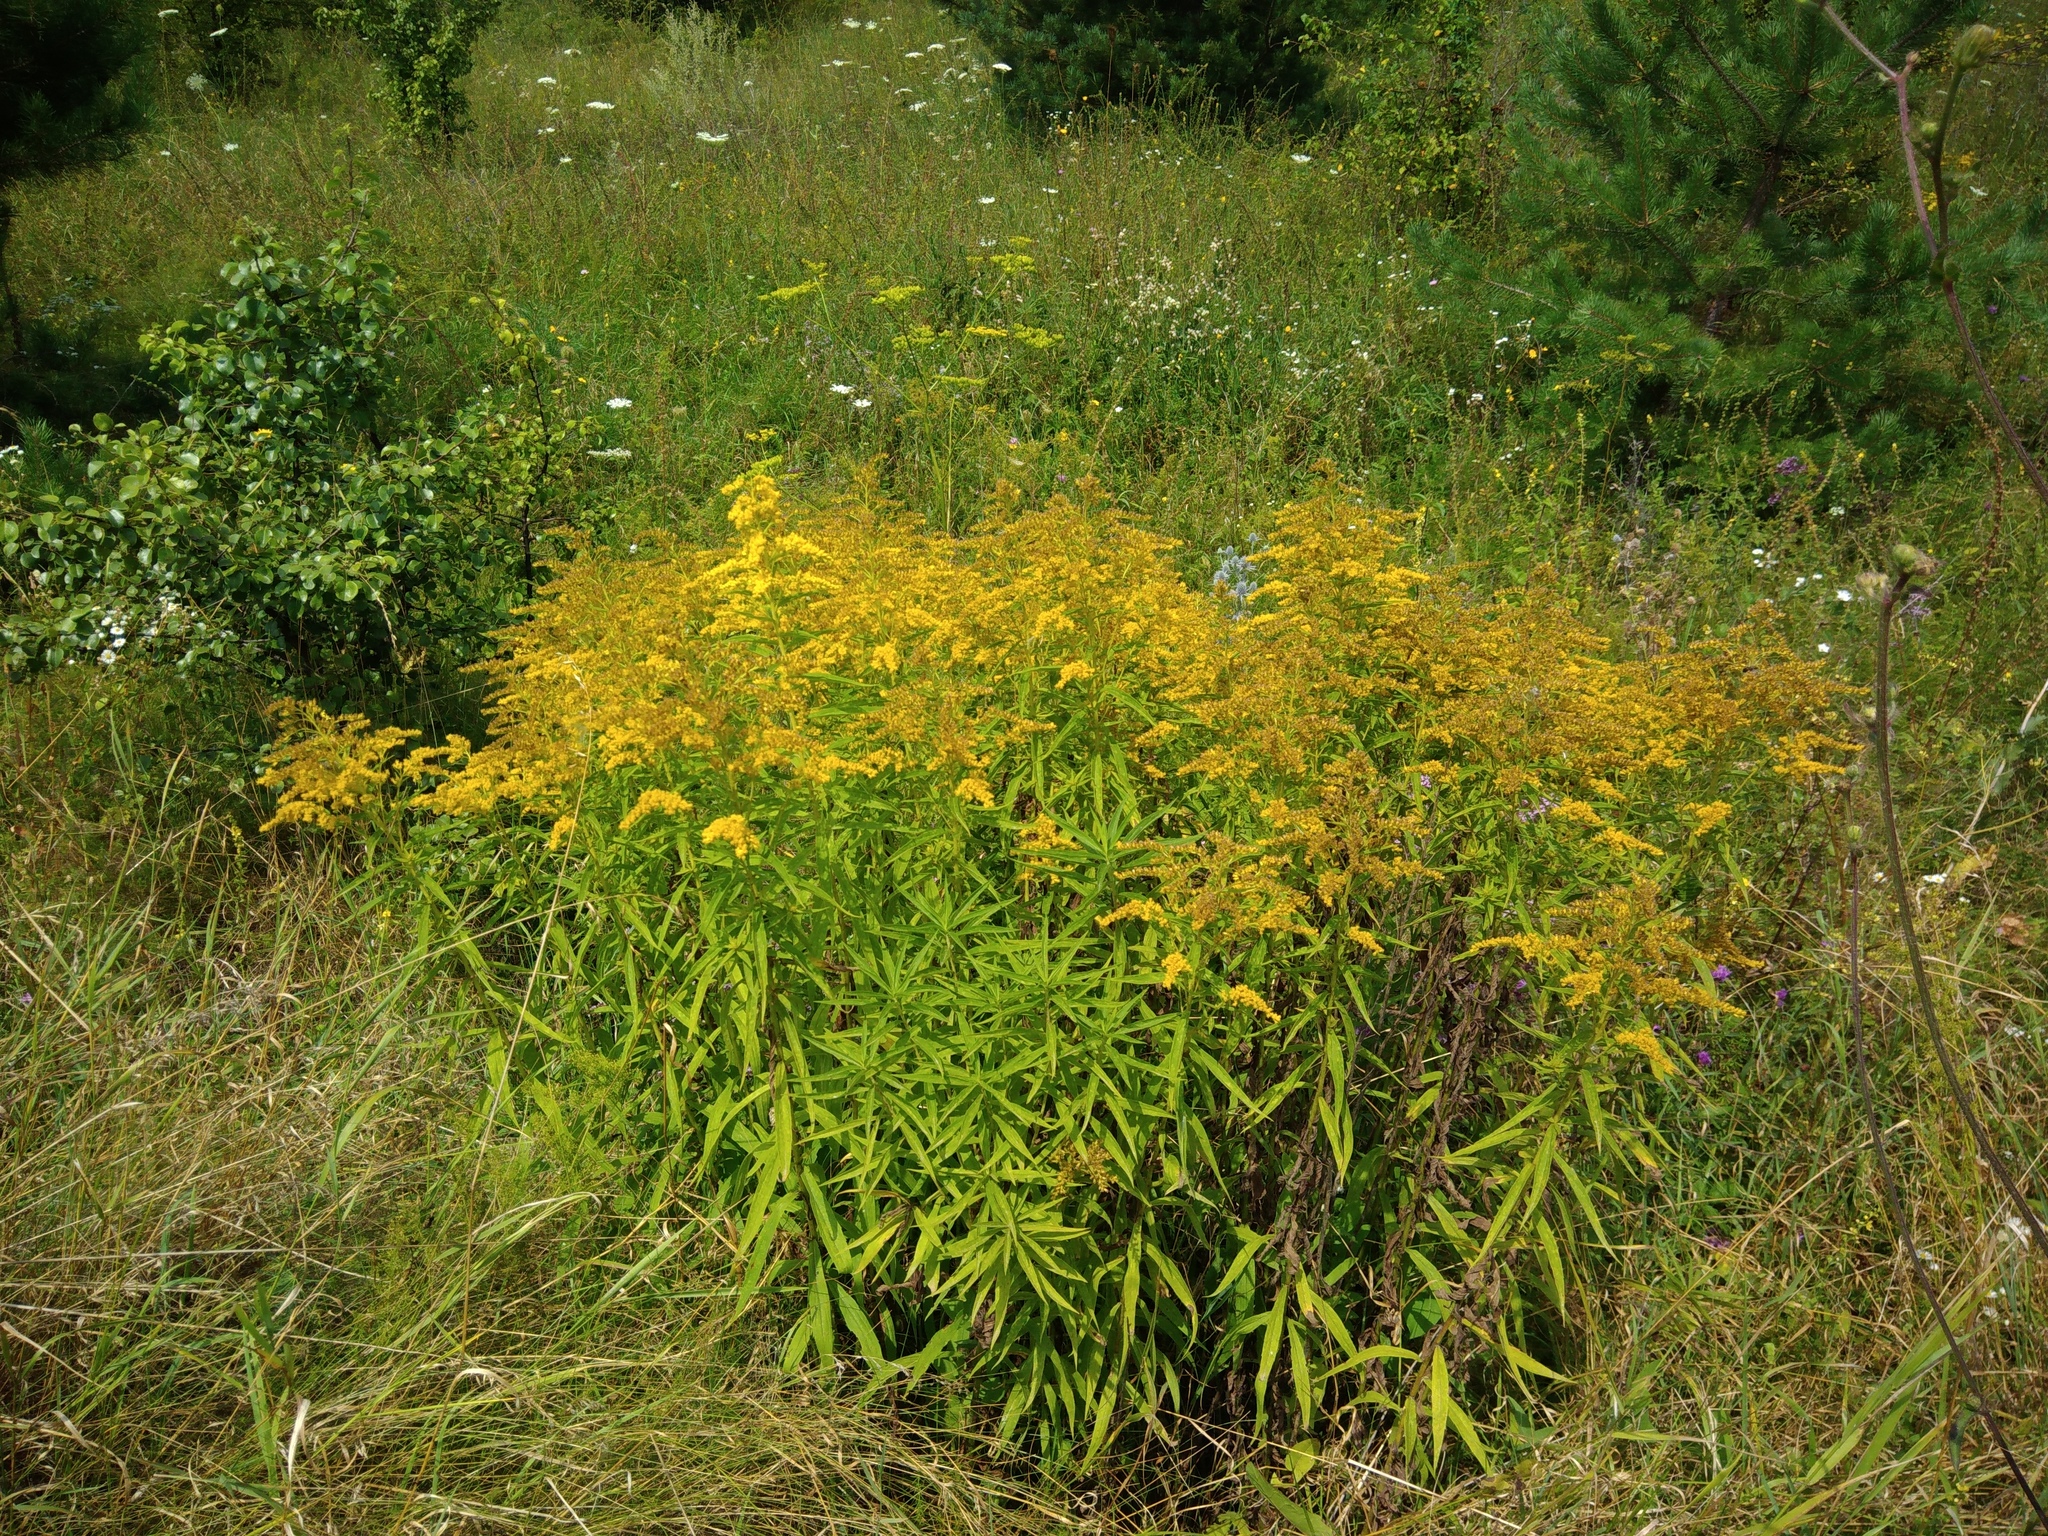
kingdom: Plantae
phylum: Tracheophyta
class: Magnoliopsida
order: Asterales
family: Asteraceae
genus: Solidago
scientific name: Solidago canadensis
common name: Canada goldenrod
